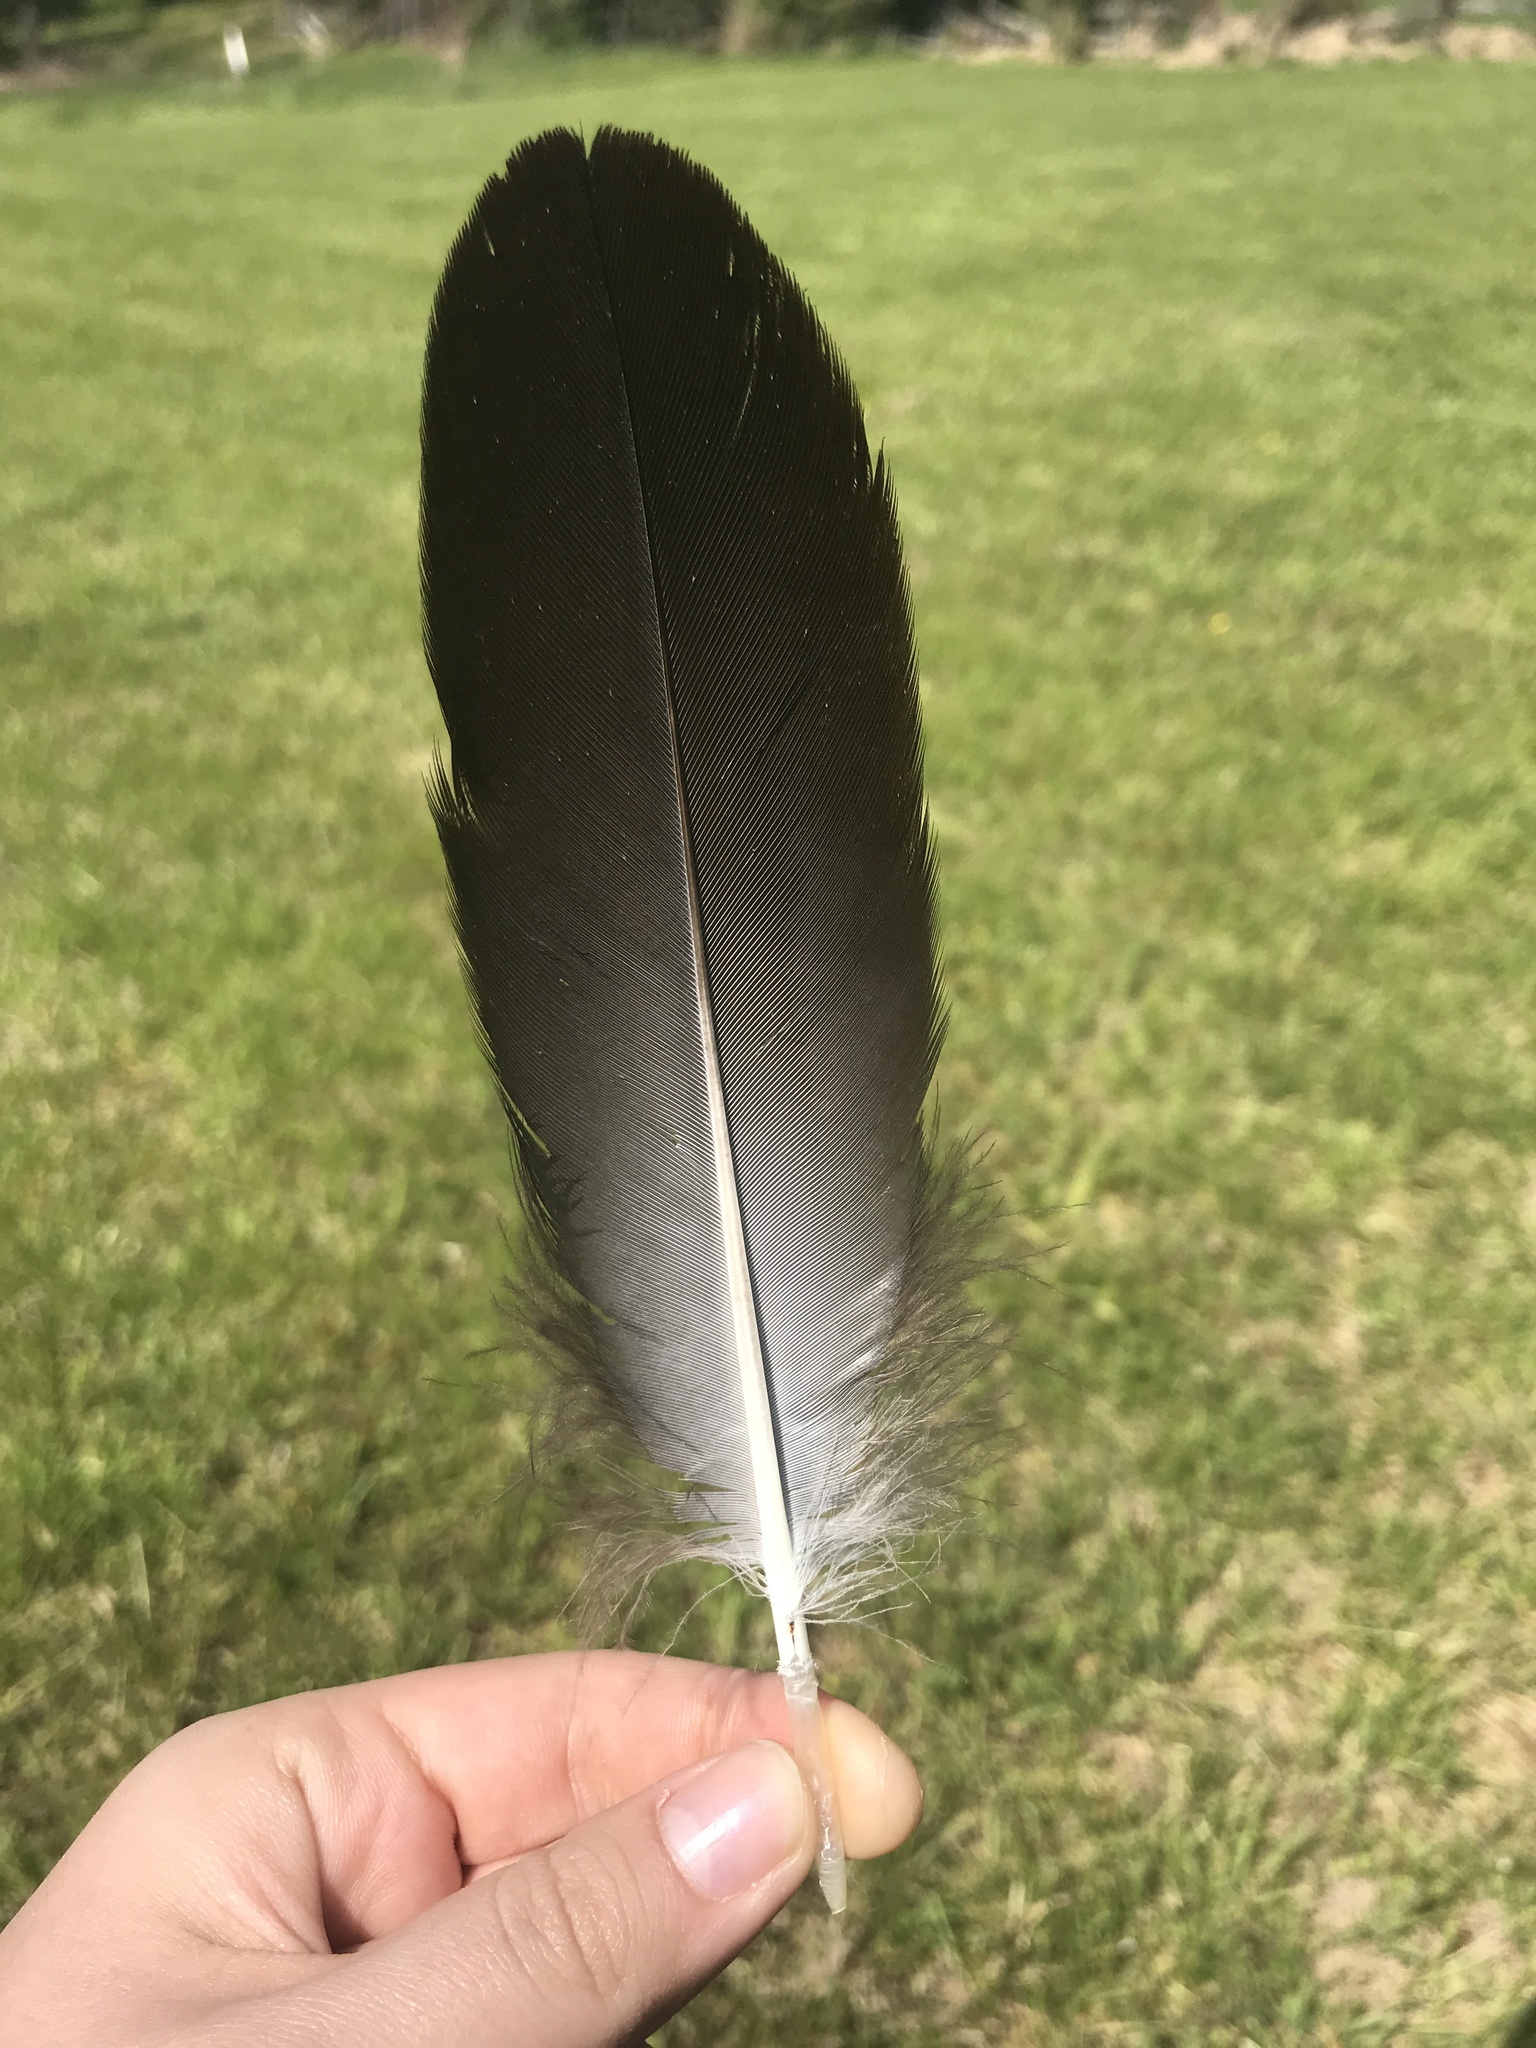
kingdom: Animalia
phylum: Chordata
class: Aves
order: Accipitriformes
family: Cathartidae
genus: Coragyps
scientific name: Coragyps atratus
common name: Black vulture
